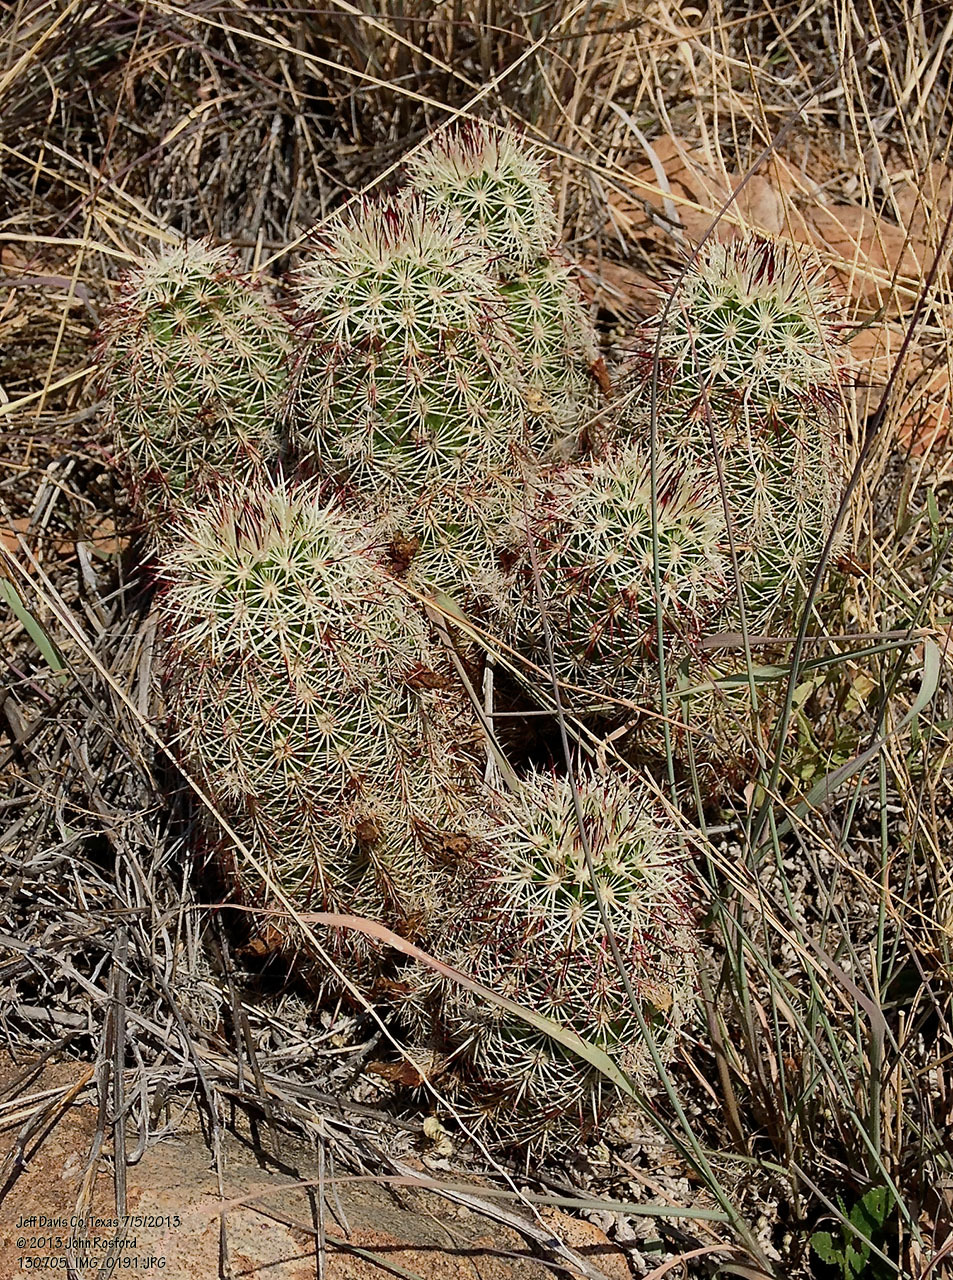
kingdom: Plantae
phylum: Tracheophyta
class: Magnoliopsida
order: Caryophyllales
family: Cactaceae
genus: Echinocereus
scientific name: Echinocereus viridiflorus
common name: Nylon hedgehog cactus
